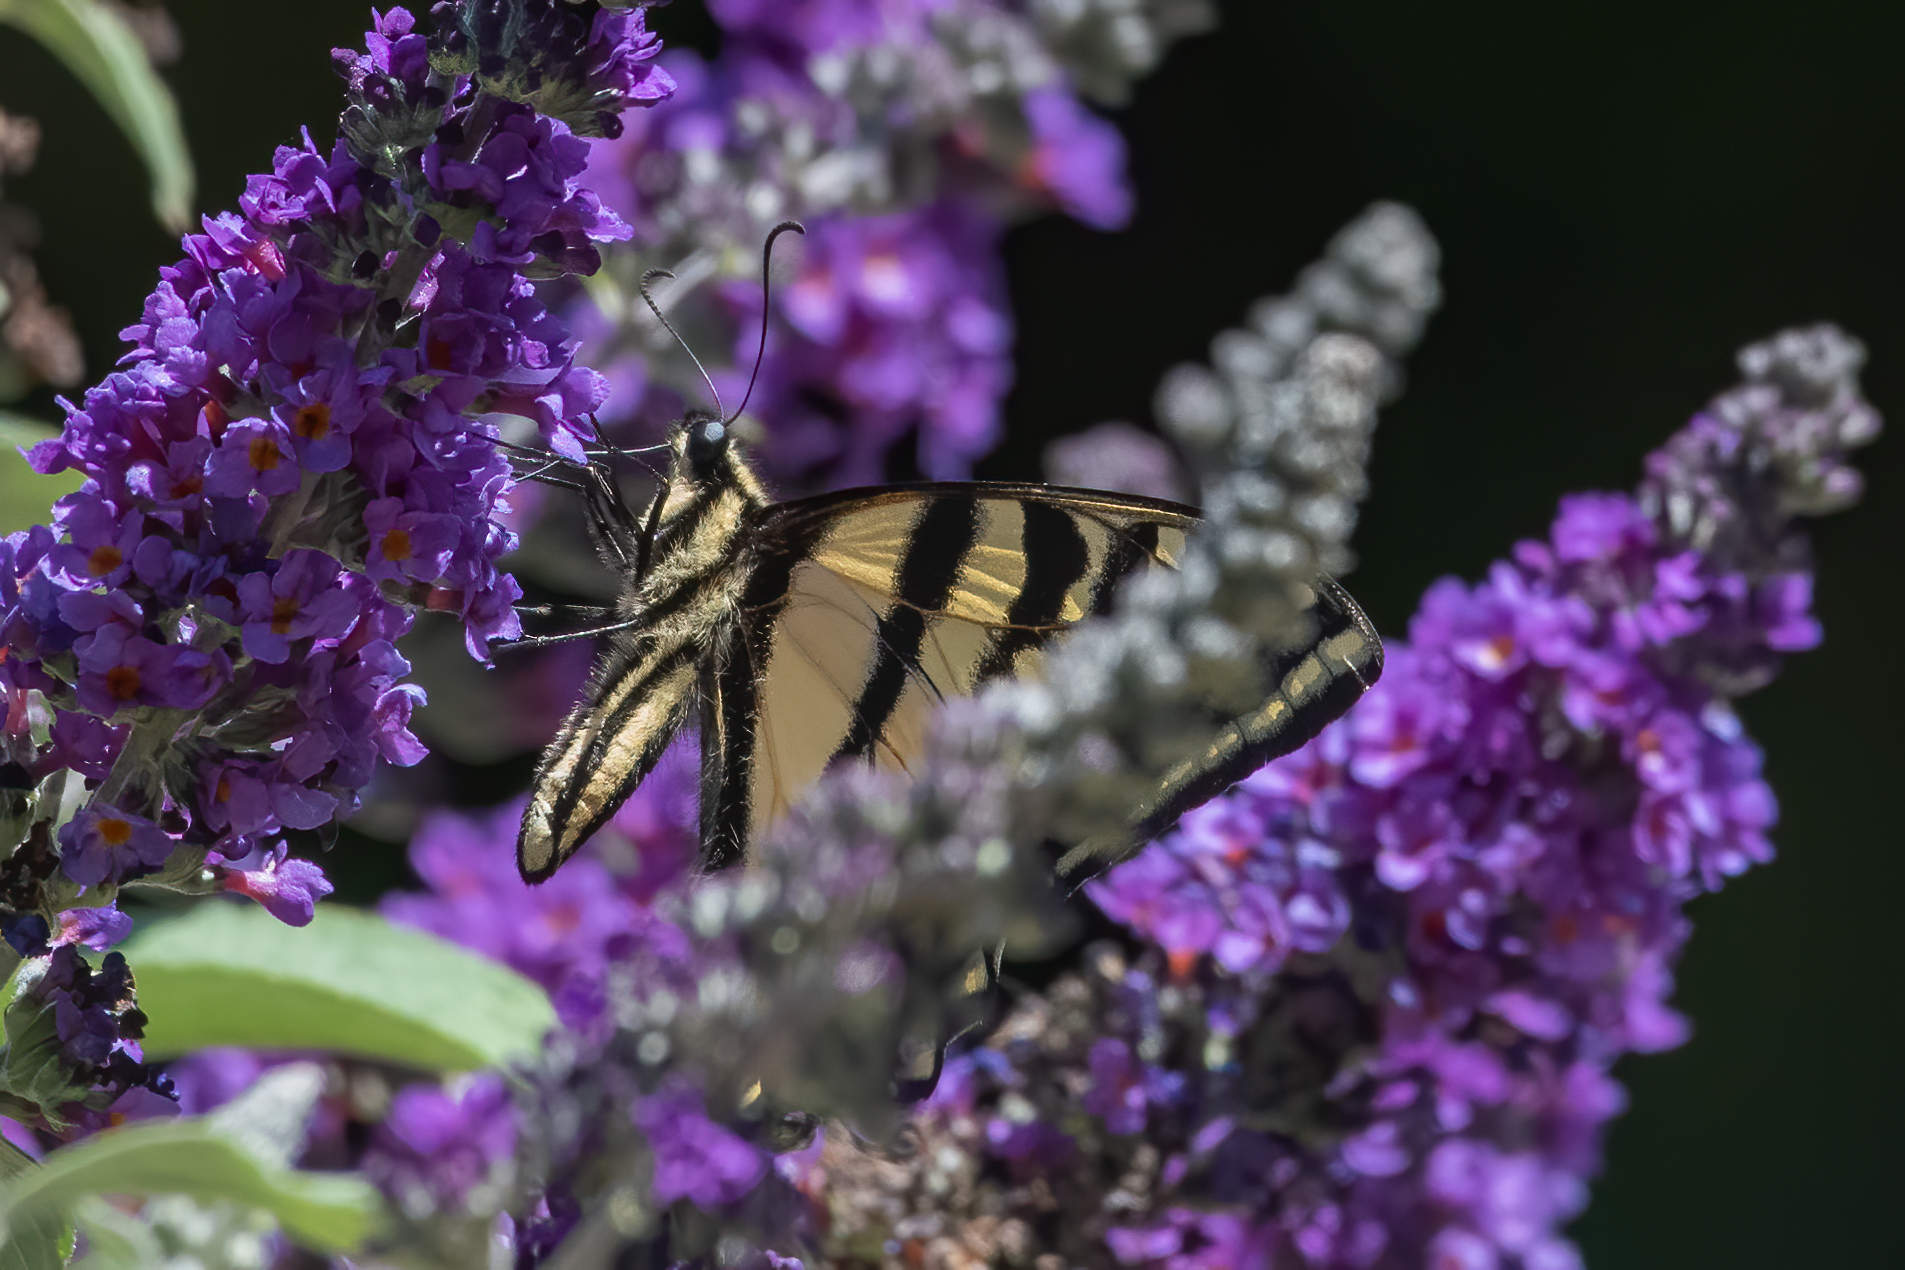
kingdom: Animalia
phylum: Arthropoda
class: Insecta
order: Lepidoptera
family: Papilionidae
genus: Papilio
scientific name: Papilio rutulus
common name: Western tiger swallowtail
